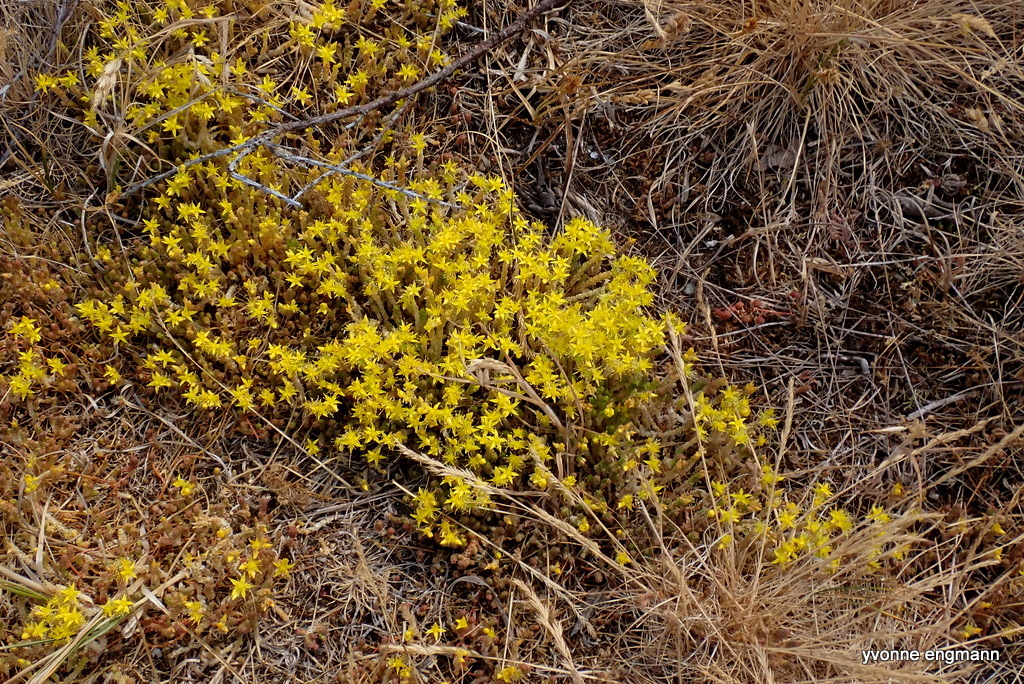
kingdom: Plantae
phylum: Tracheophyta
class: Magnoliopsida
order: Saxifragales
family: Crassulaceae
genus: Sedum
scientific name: Sedum acre
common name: Biting stonecrop
